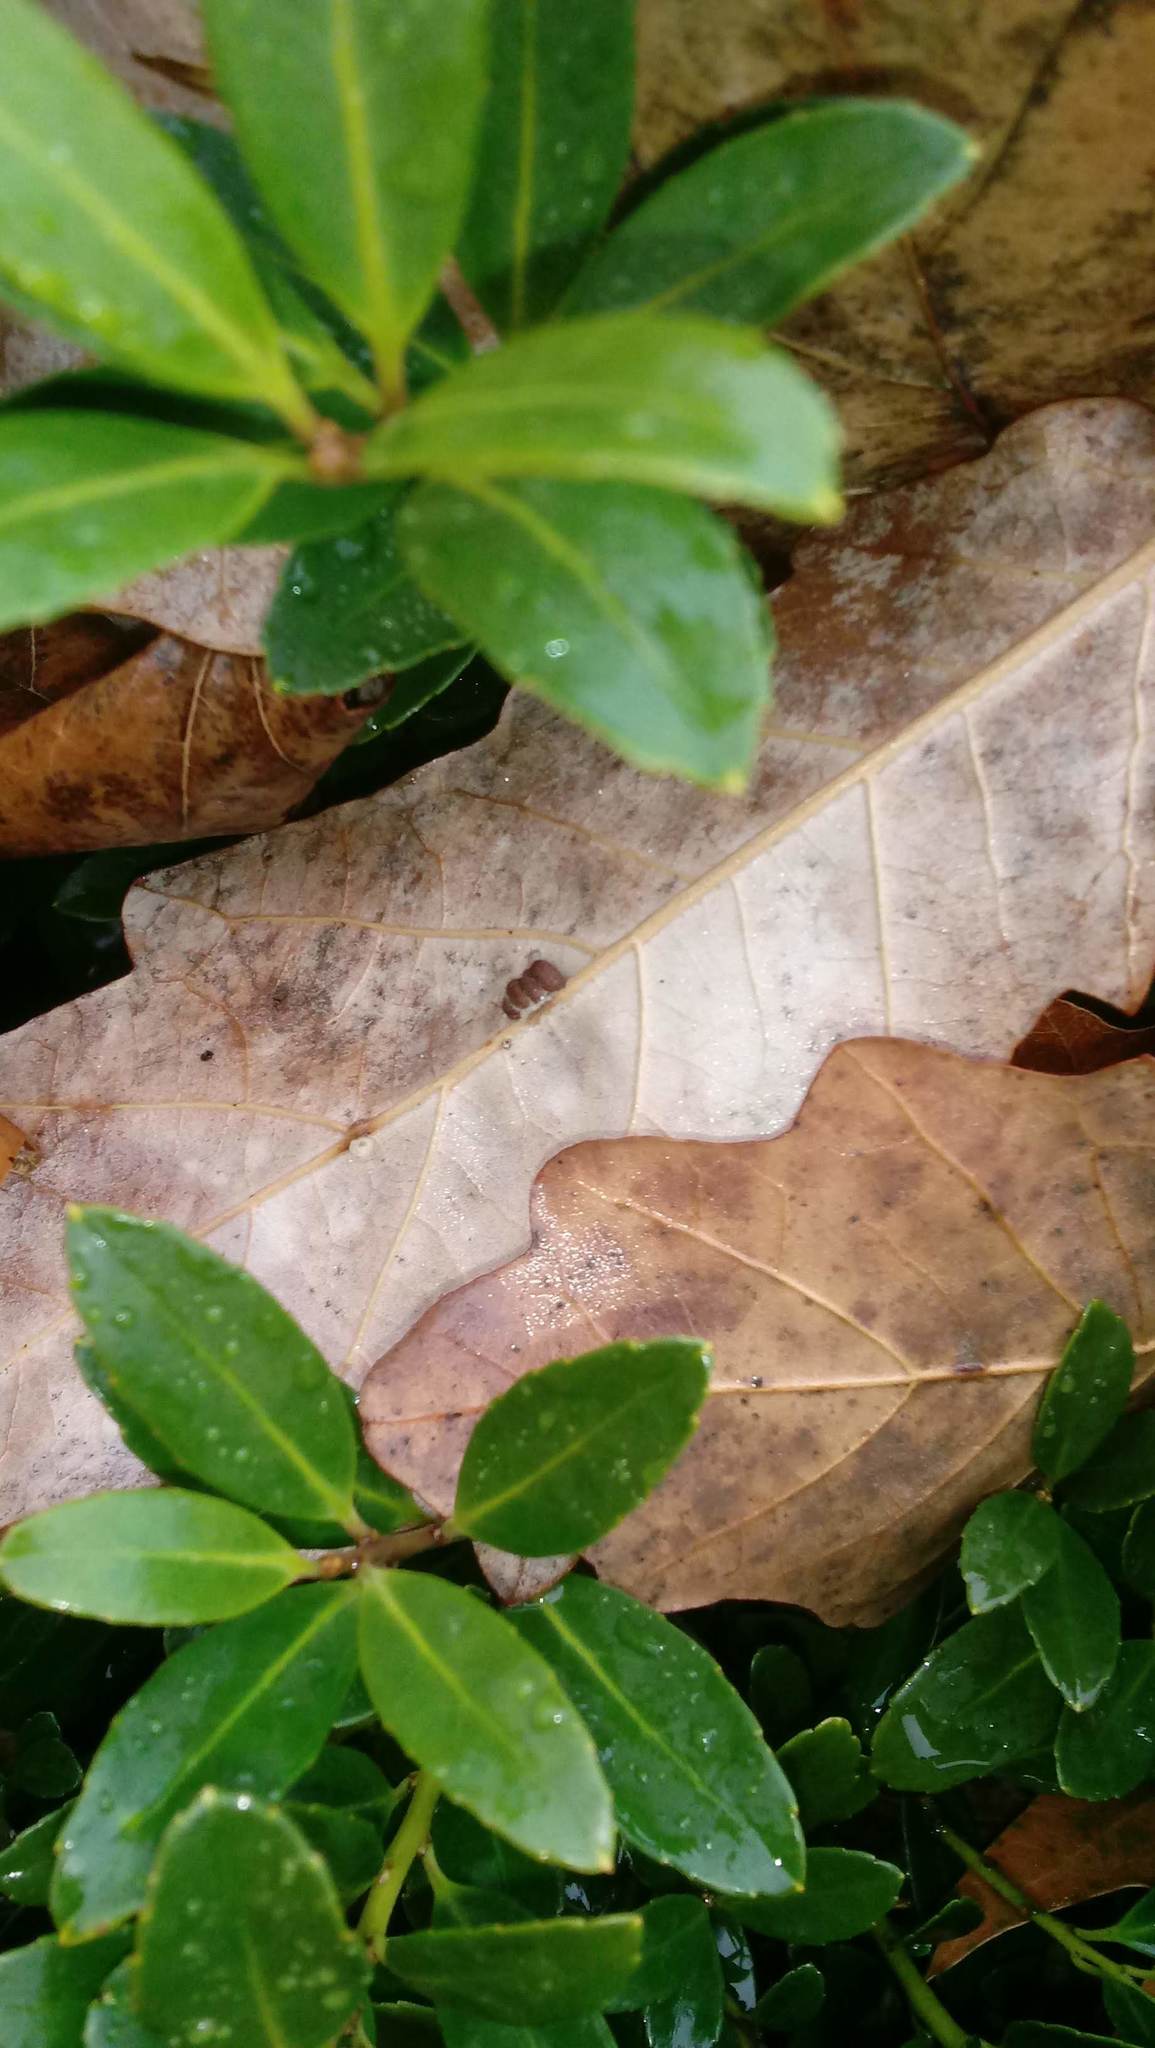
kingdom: Animalia
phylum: Arthropoda
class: Insecta
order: Hymenoptera
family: Cynipidae
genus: Andricus
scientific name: Andricus Druon ignotum
